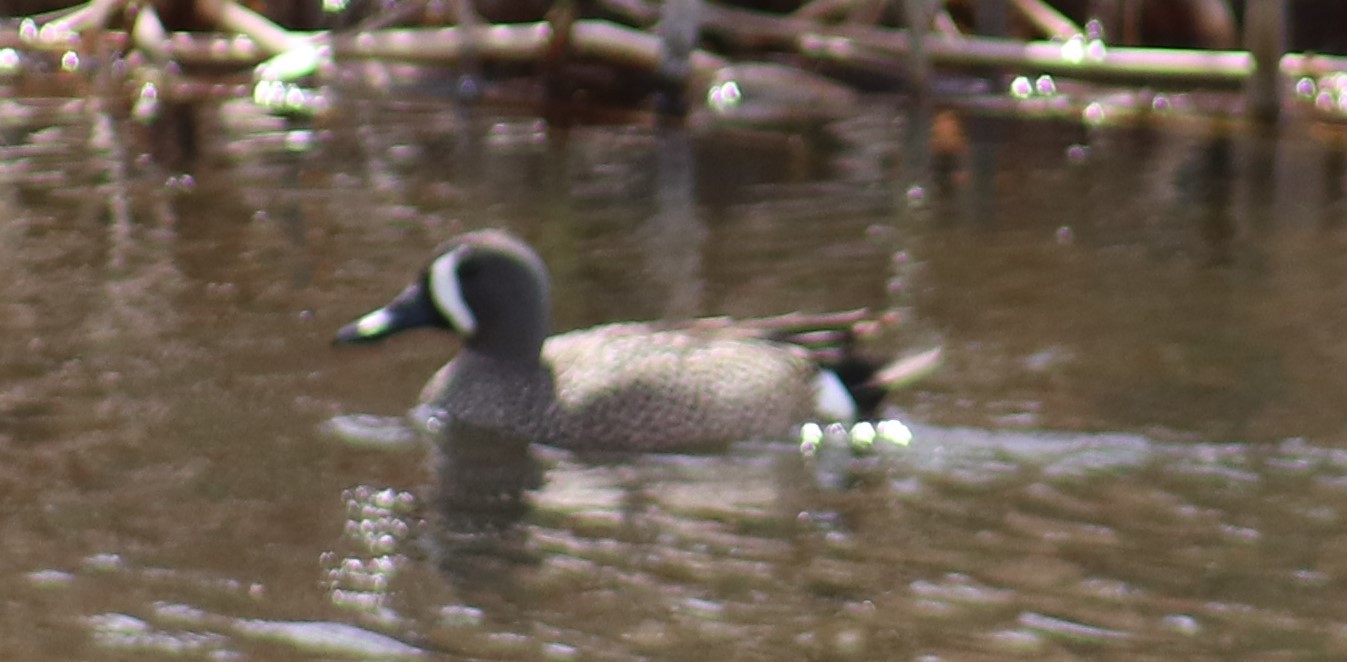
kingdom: Animalia
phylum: Chordata
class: Aves
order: Anseriformes
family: Anatidae
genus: Spatula
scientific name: Spatula discors
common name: Blue-winged teal
